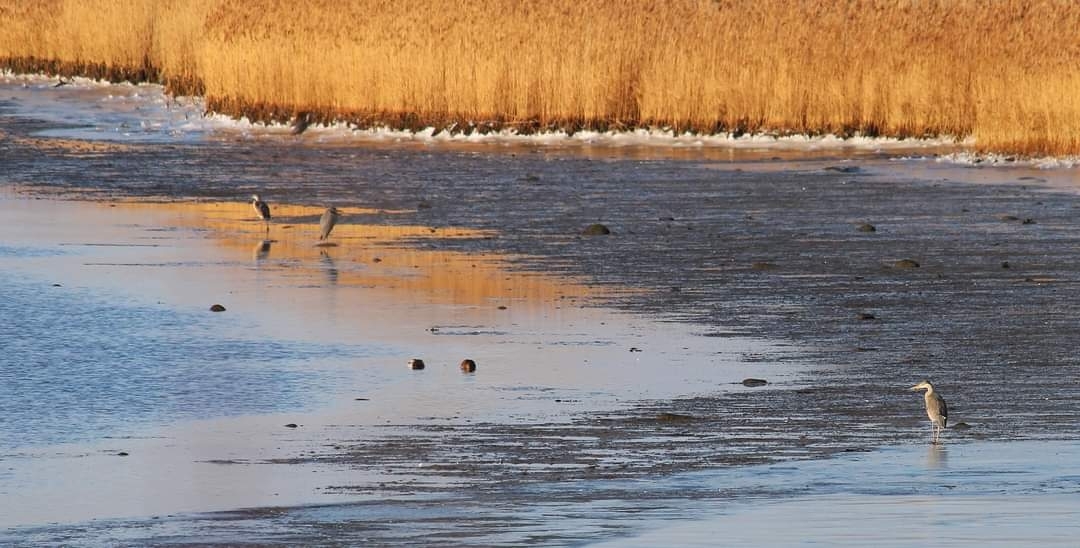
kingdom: Animalia
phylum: Chordata
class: Aves
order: Pelecaniformes
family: Ardeidae
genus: Ardea
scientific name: Ardea cinerea
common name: Grey heron
